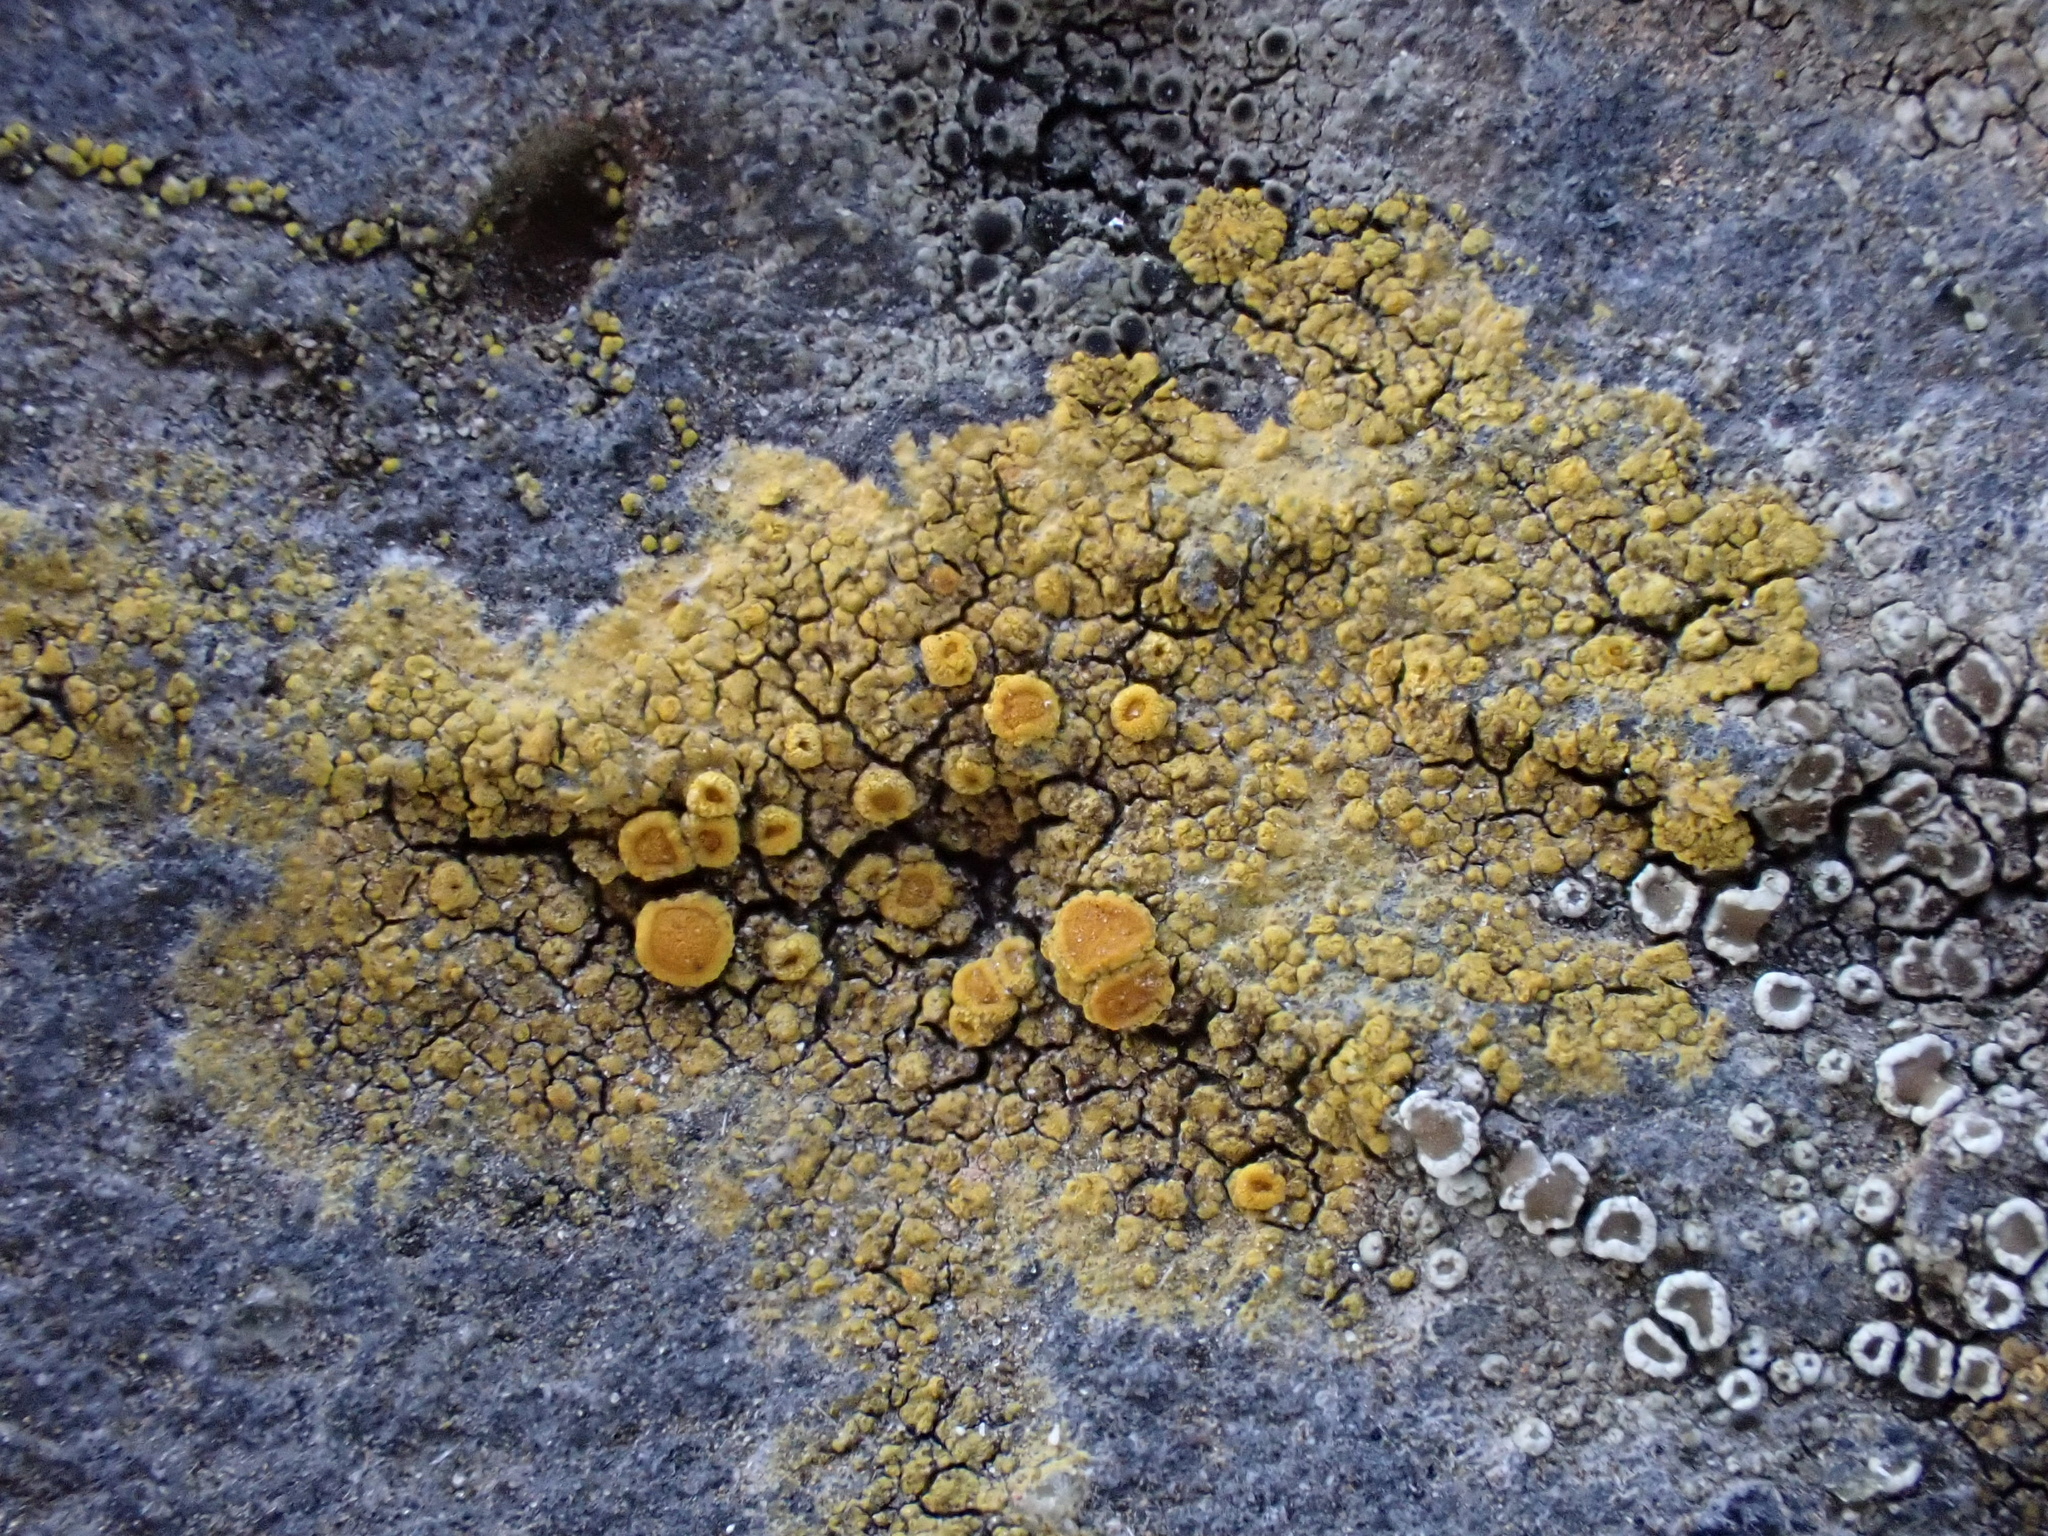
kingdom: Fungi
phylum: Ascomycota
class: Lecanoromycetes
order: Teloschistales
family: Teloschistaceae
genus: Flavoplaca
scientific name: Flavoplaca maritima
